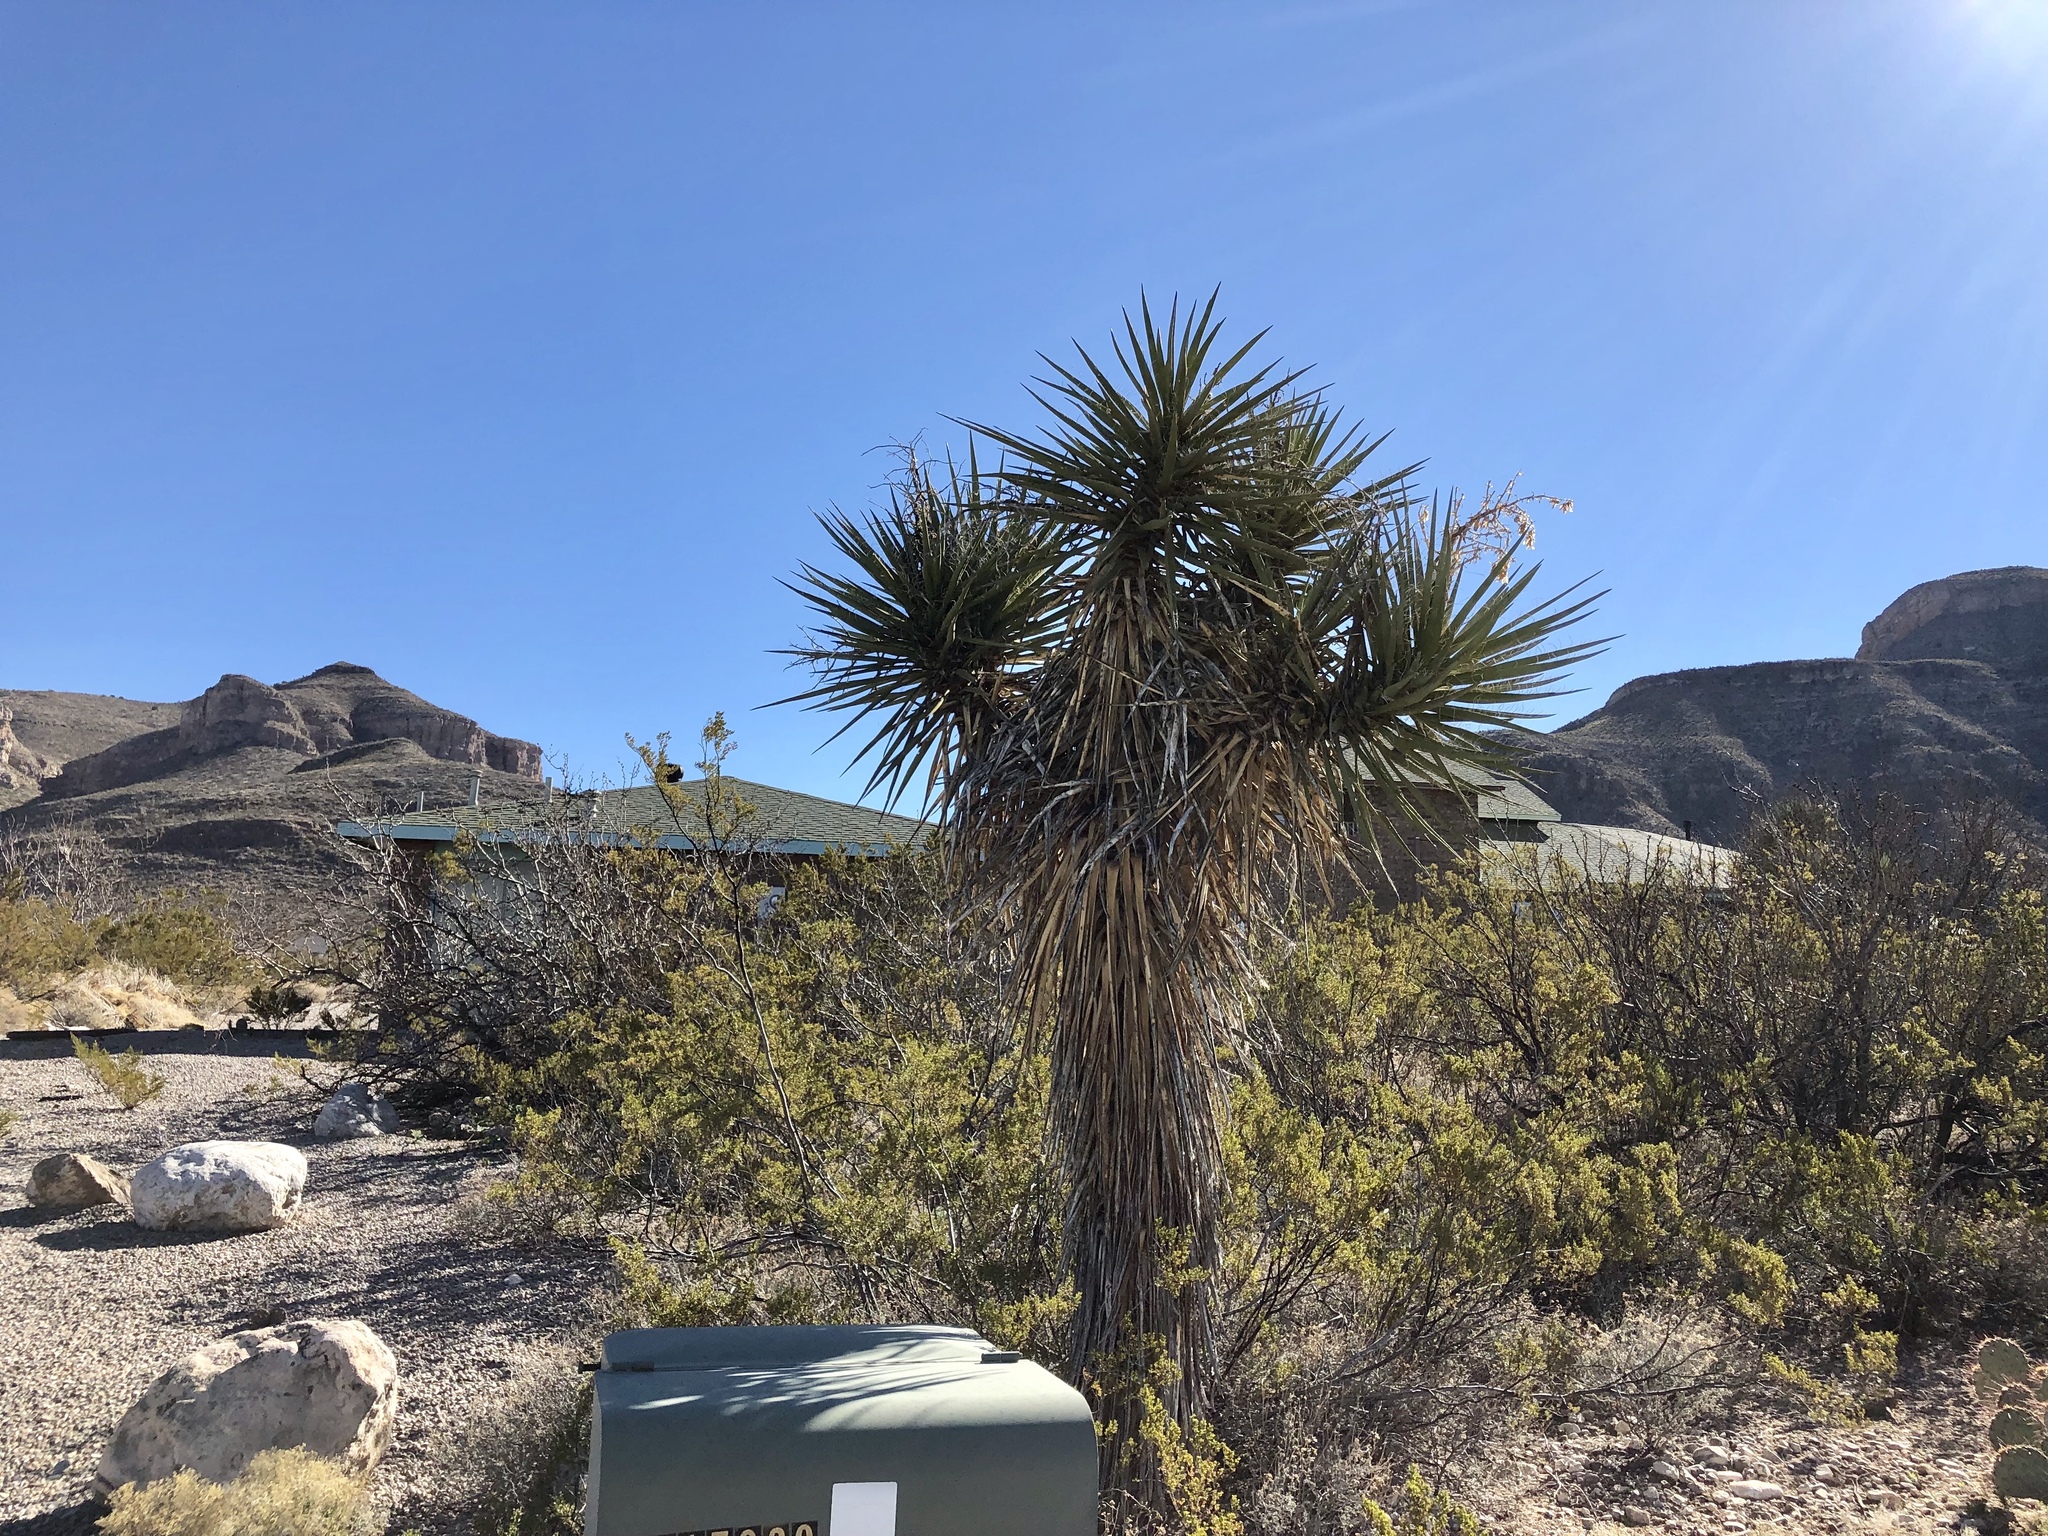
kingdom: Plantae
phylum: Tracheophyta
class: Liliopsida
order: Asparagales
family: Asparagaceae
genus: Yucca
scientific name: Yucca treculiana
